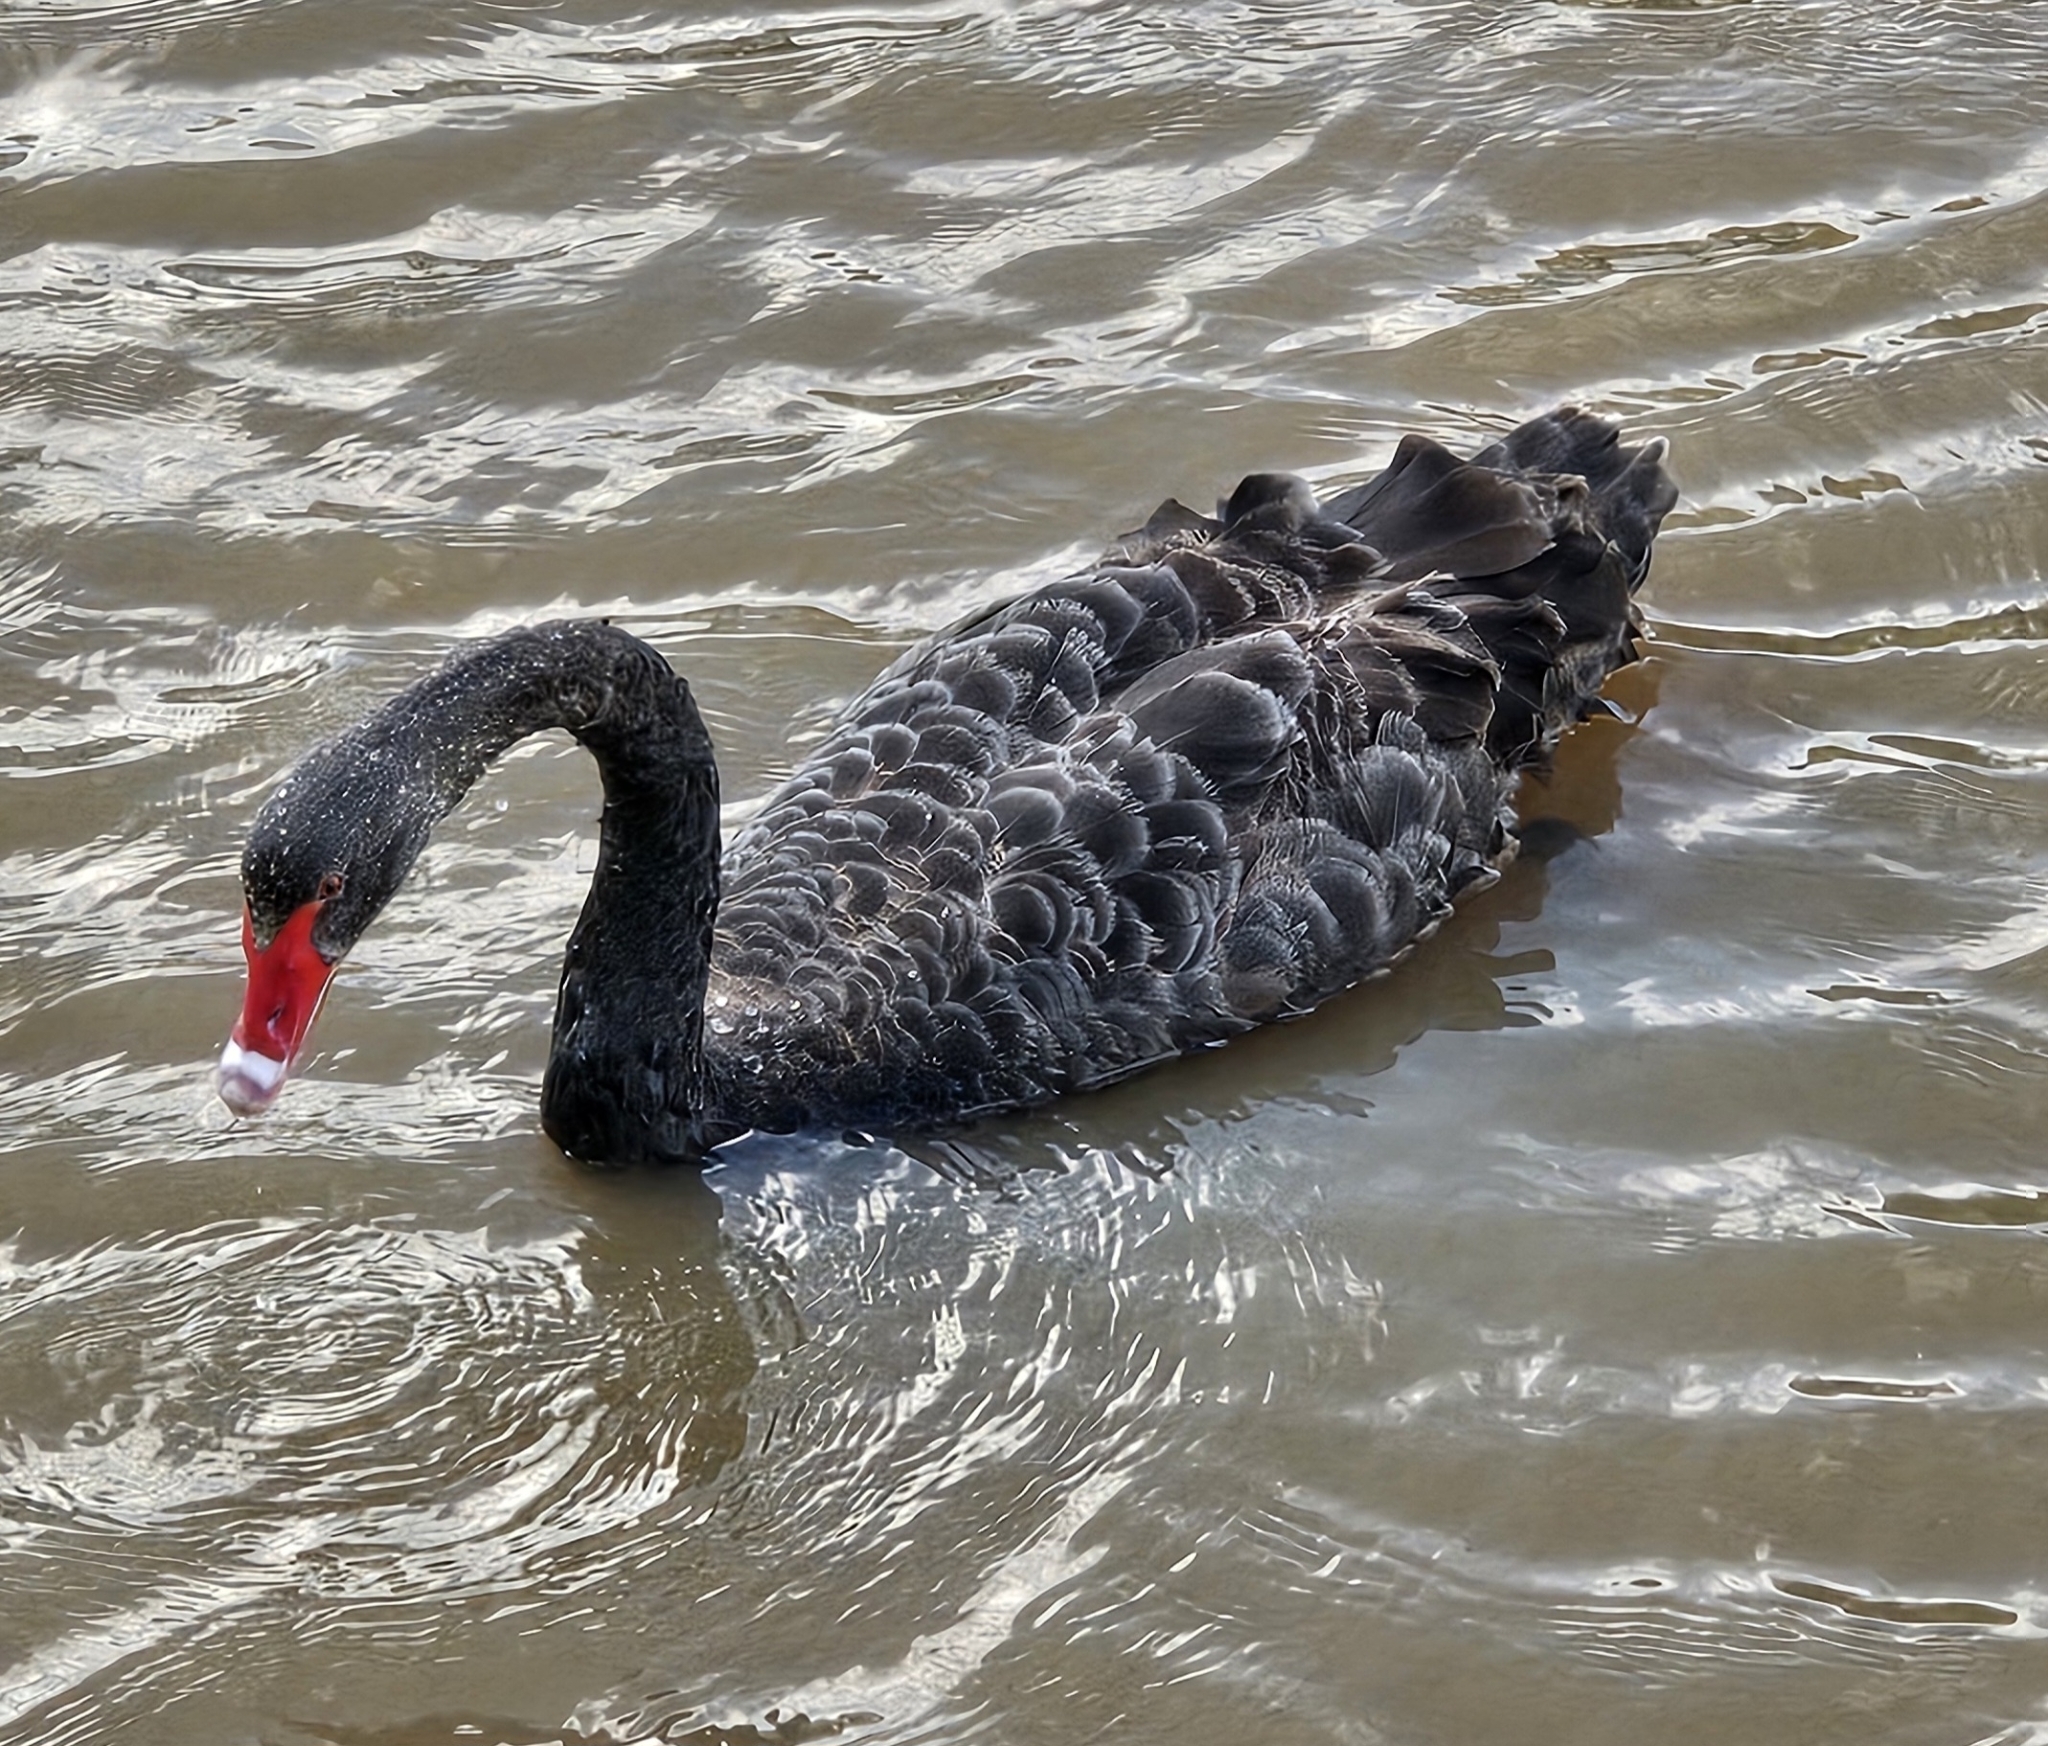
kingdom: Animalia
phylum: Chordata
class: Aves
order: Anseriformes
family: Anatidae
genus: Cygnus
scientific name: Cygnus atratus
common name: Black swan
